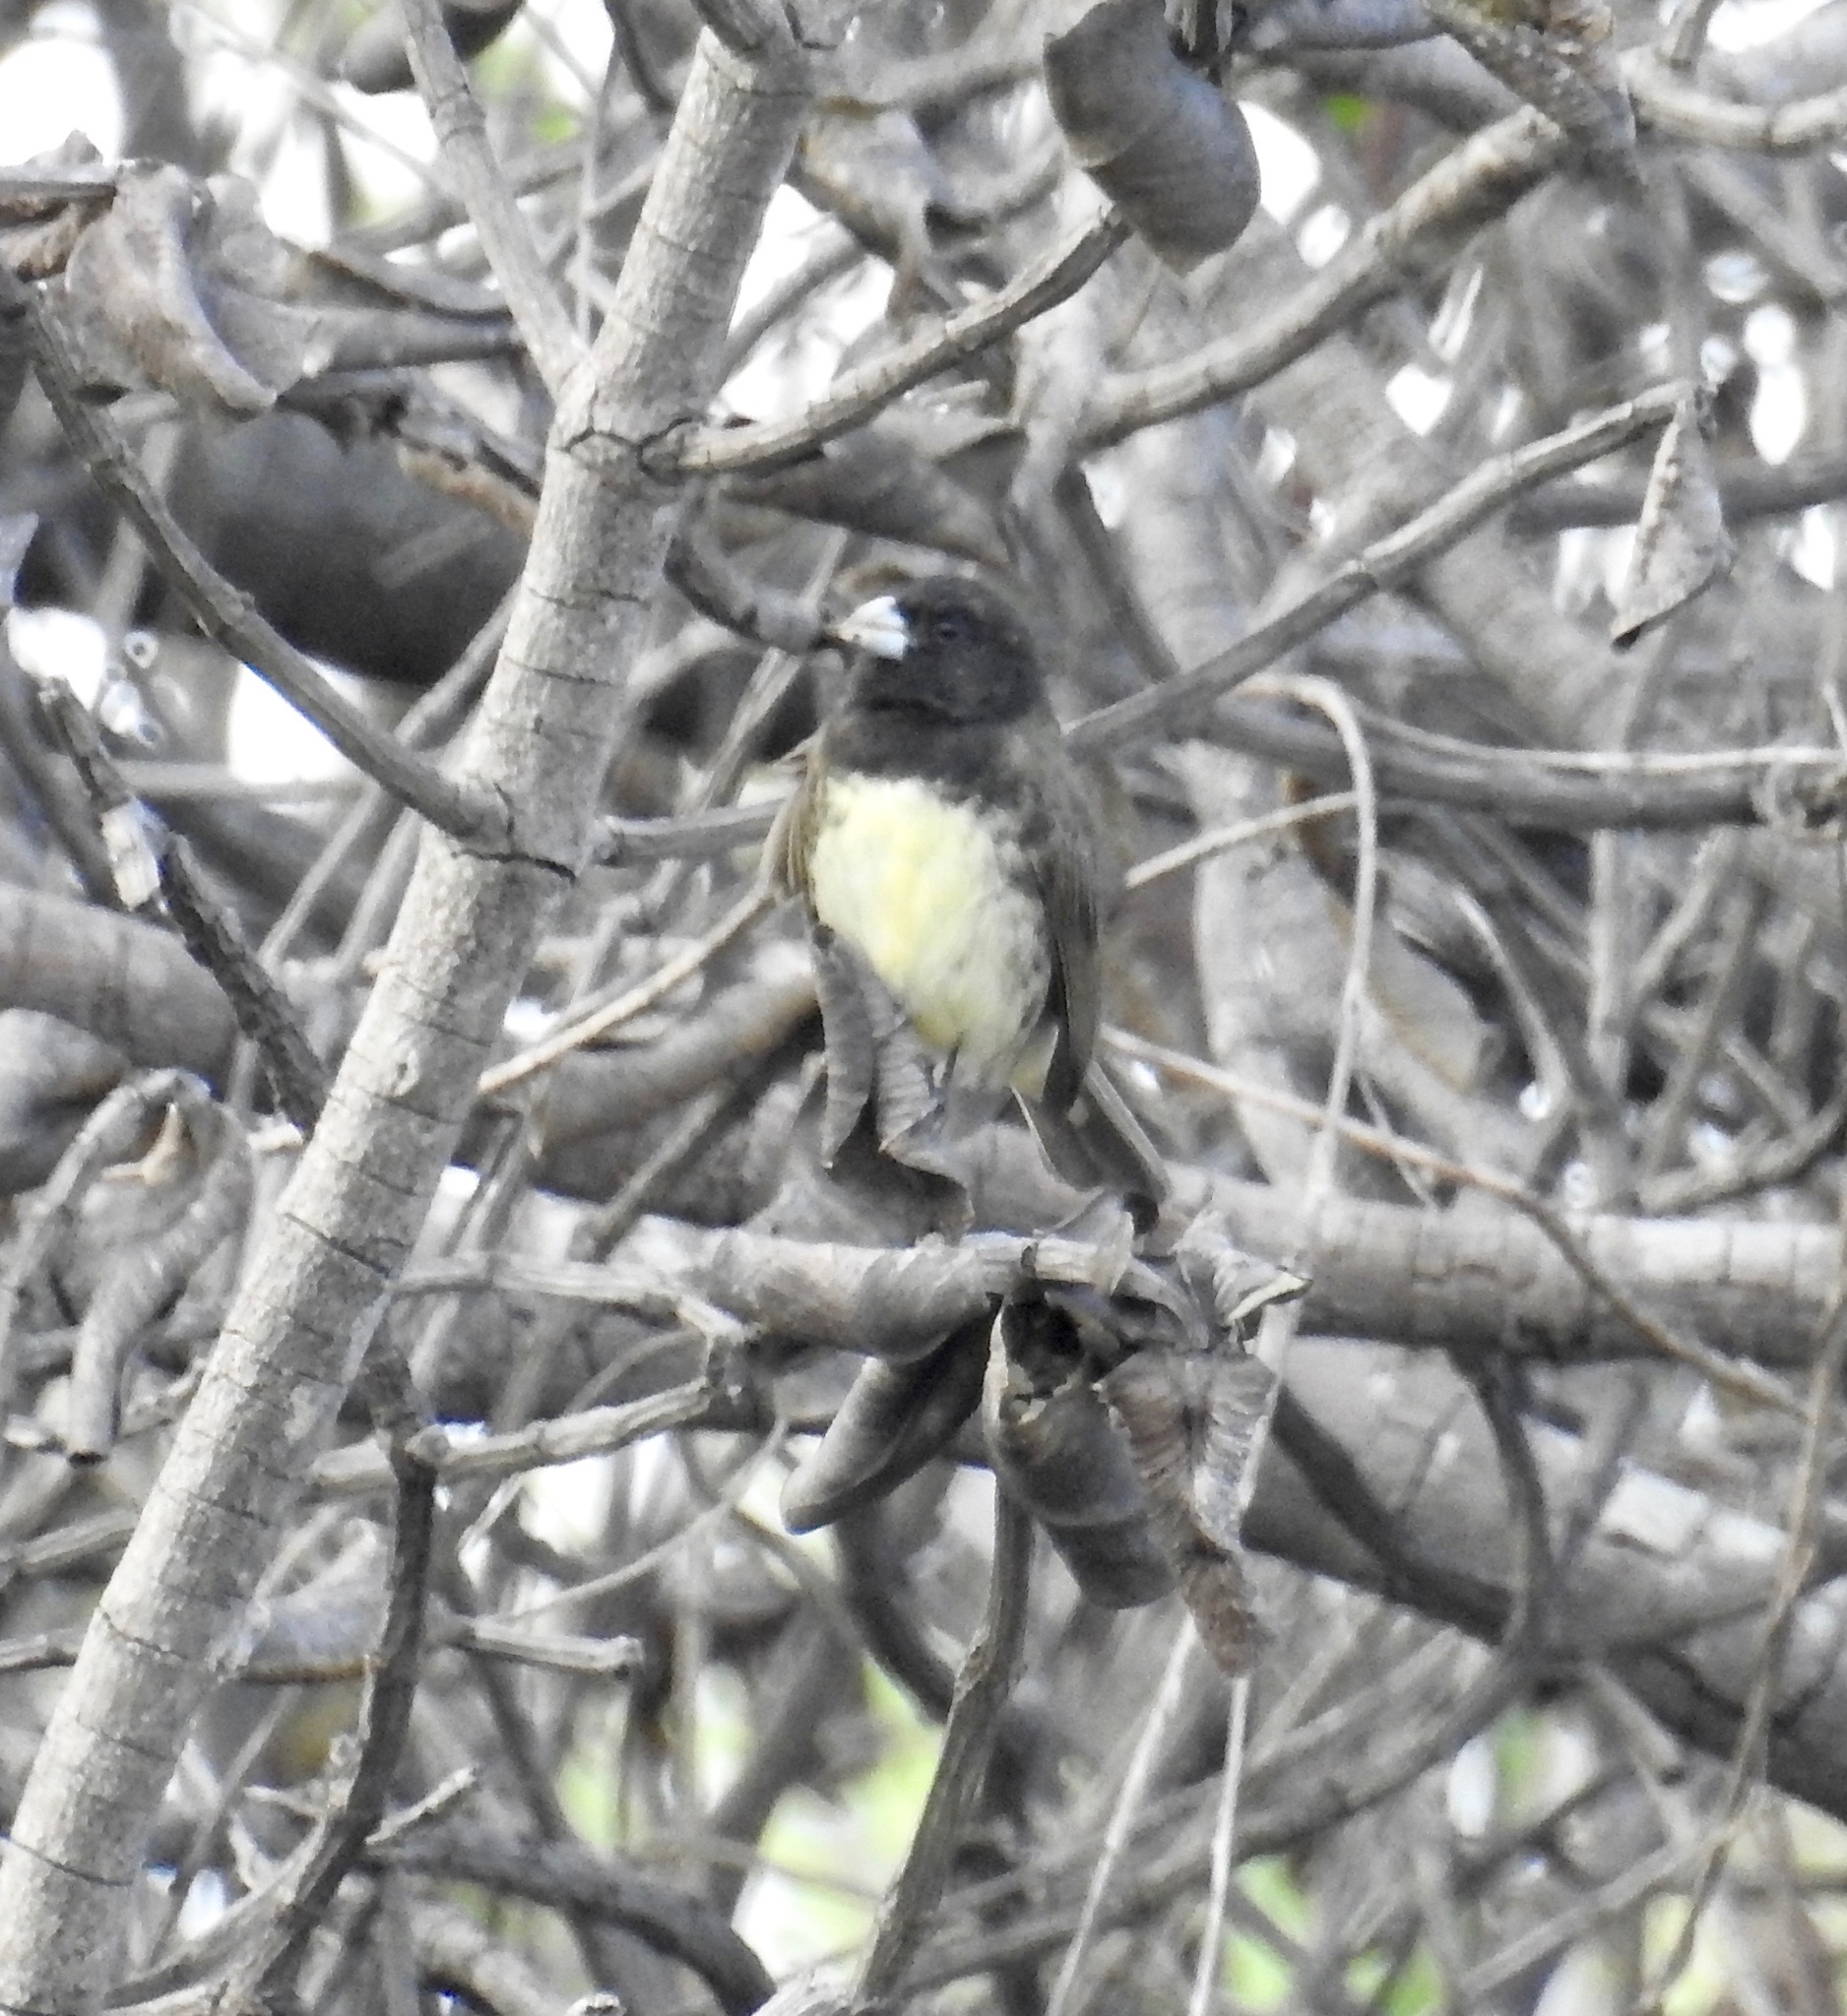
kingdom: Animalia
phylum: Chordata
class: Aves
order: Passeriformes
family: Thraupidae
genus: Sporophila
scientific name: Sporophila nigricollis
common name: Yellow-bellied seedeater
